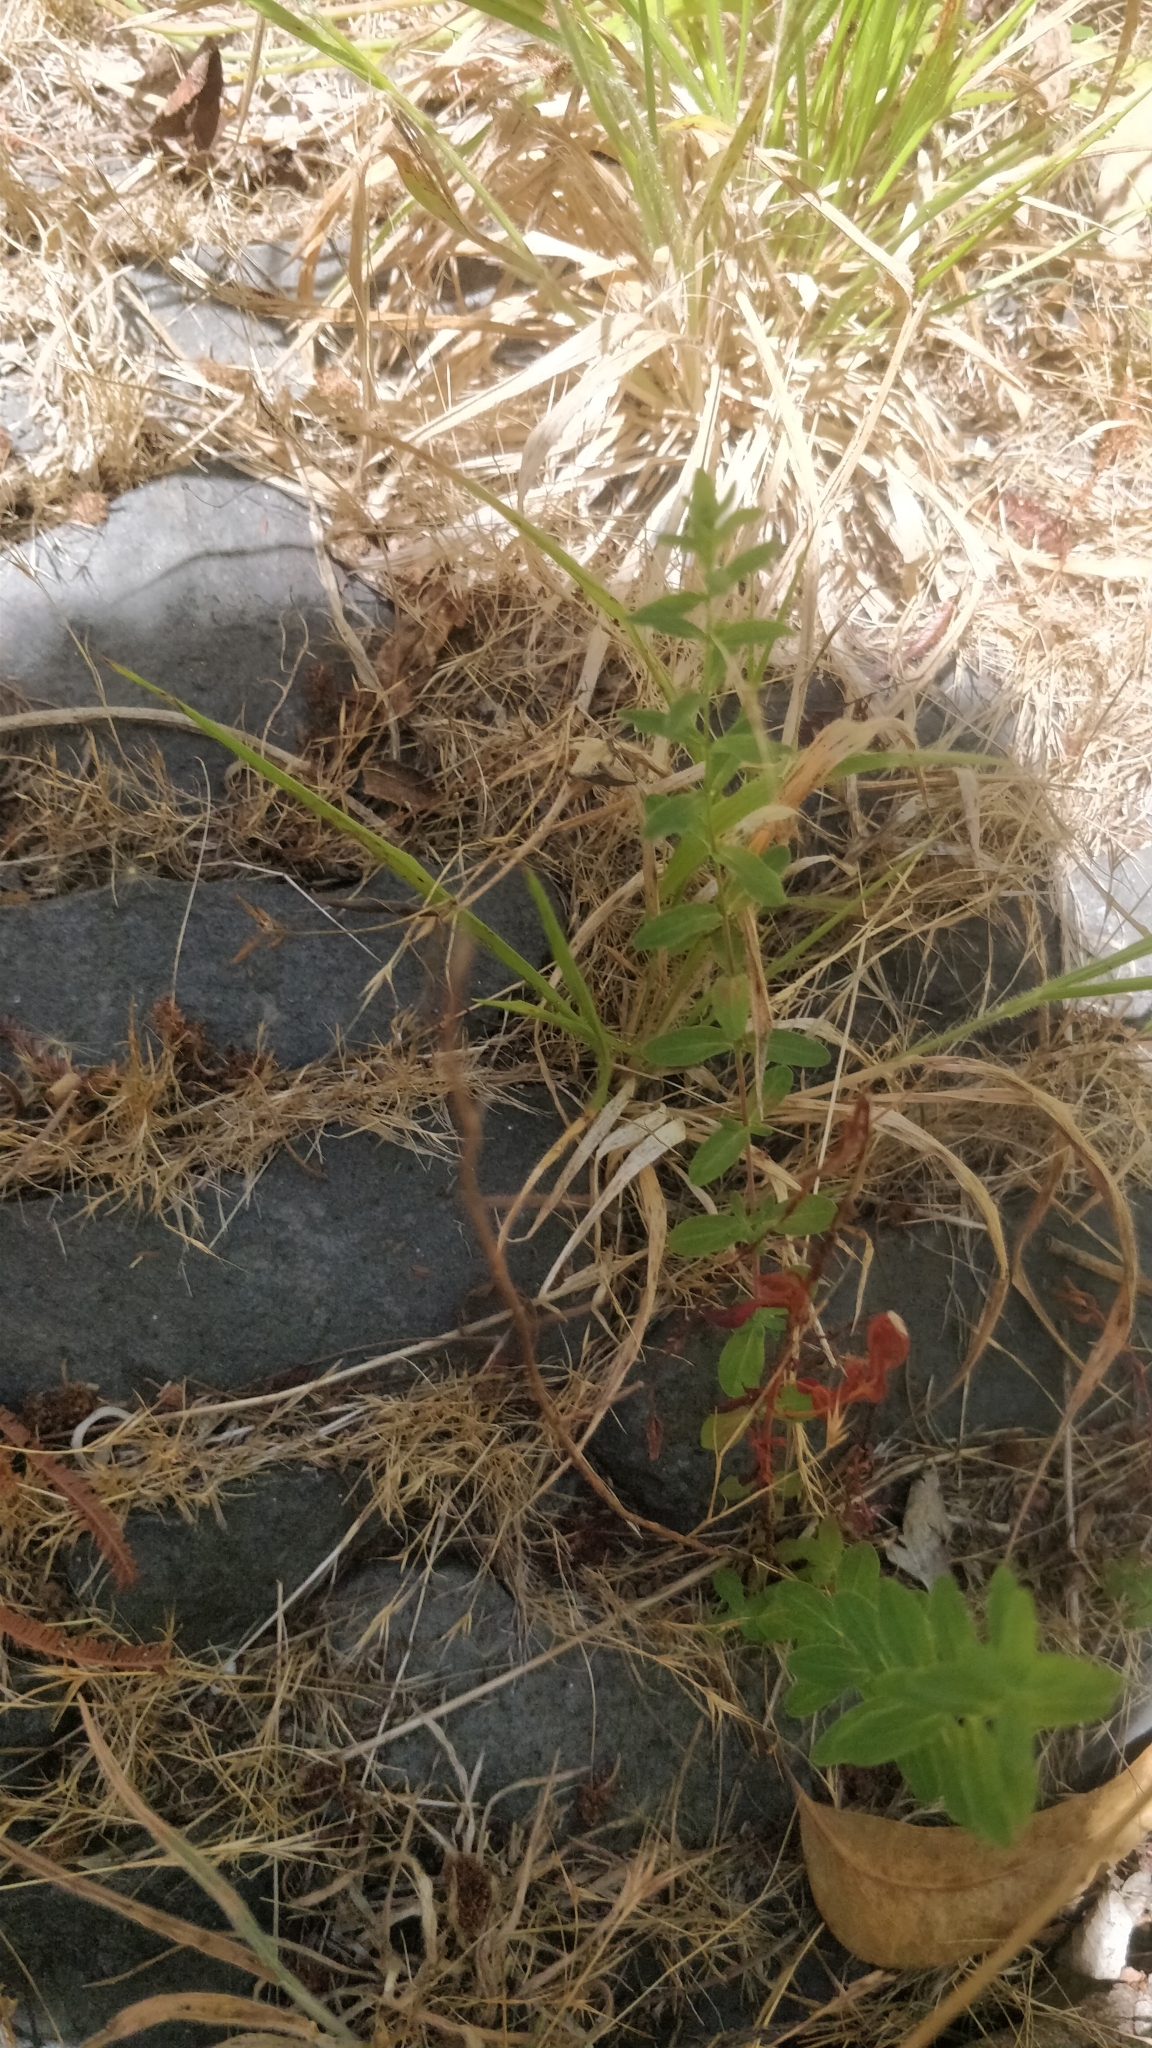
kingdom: Plantae
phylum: Tracheophyta
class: Magnoliopsida
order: Malpighiales
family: Hypericaceae
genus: Hypericum
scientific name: Hypericum perforatum
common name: Common st. johnswort
